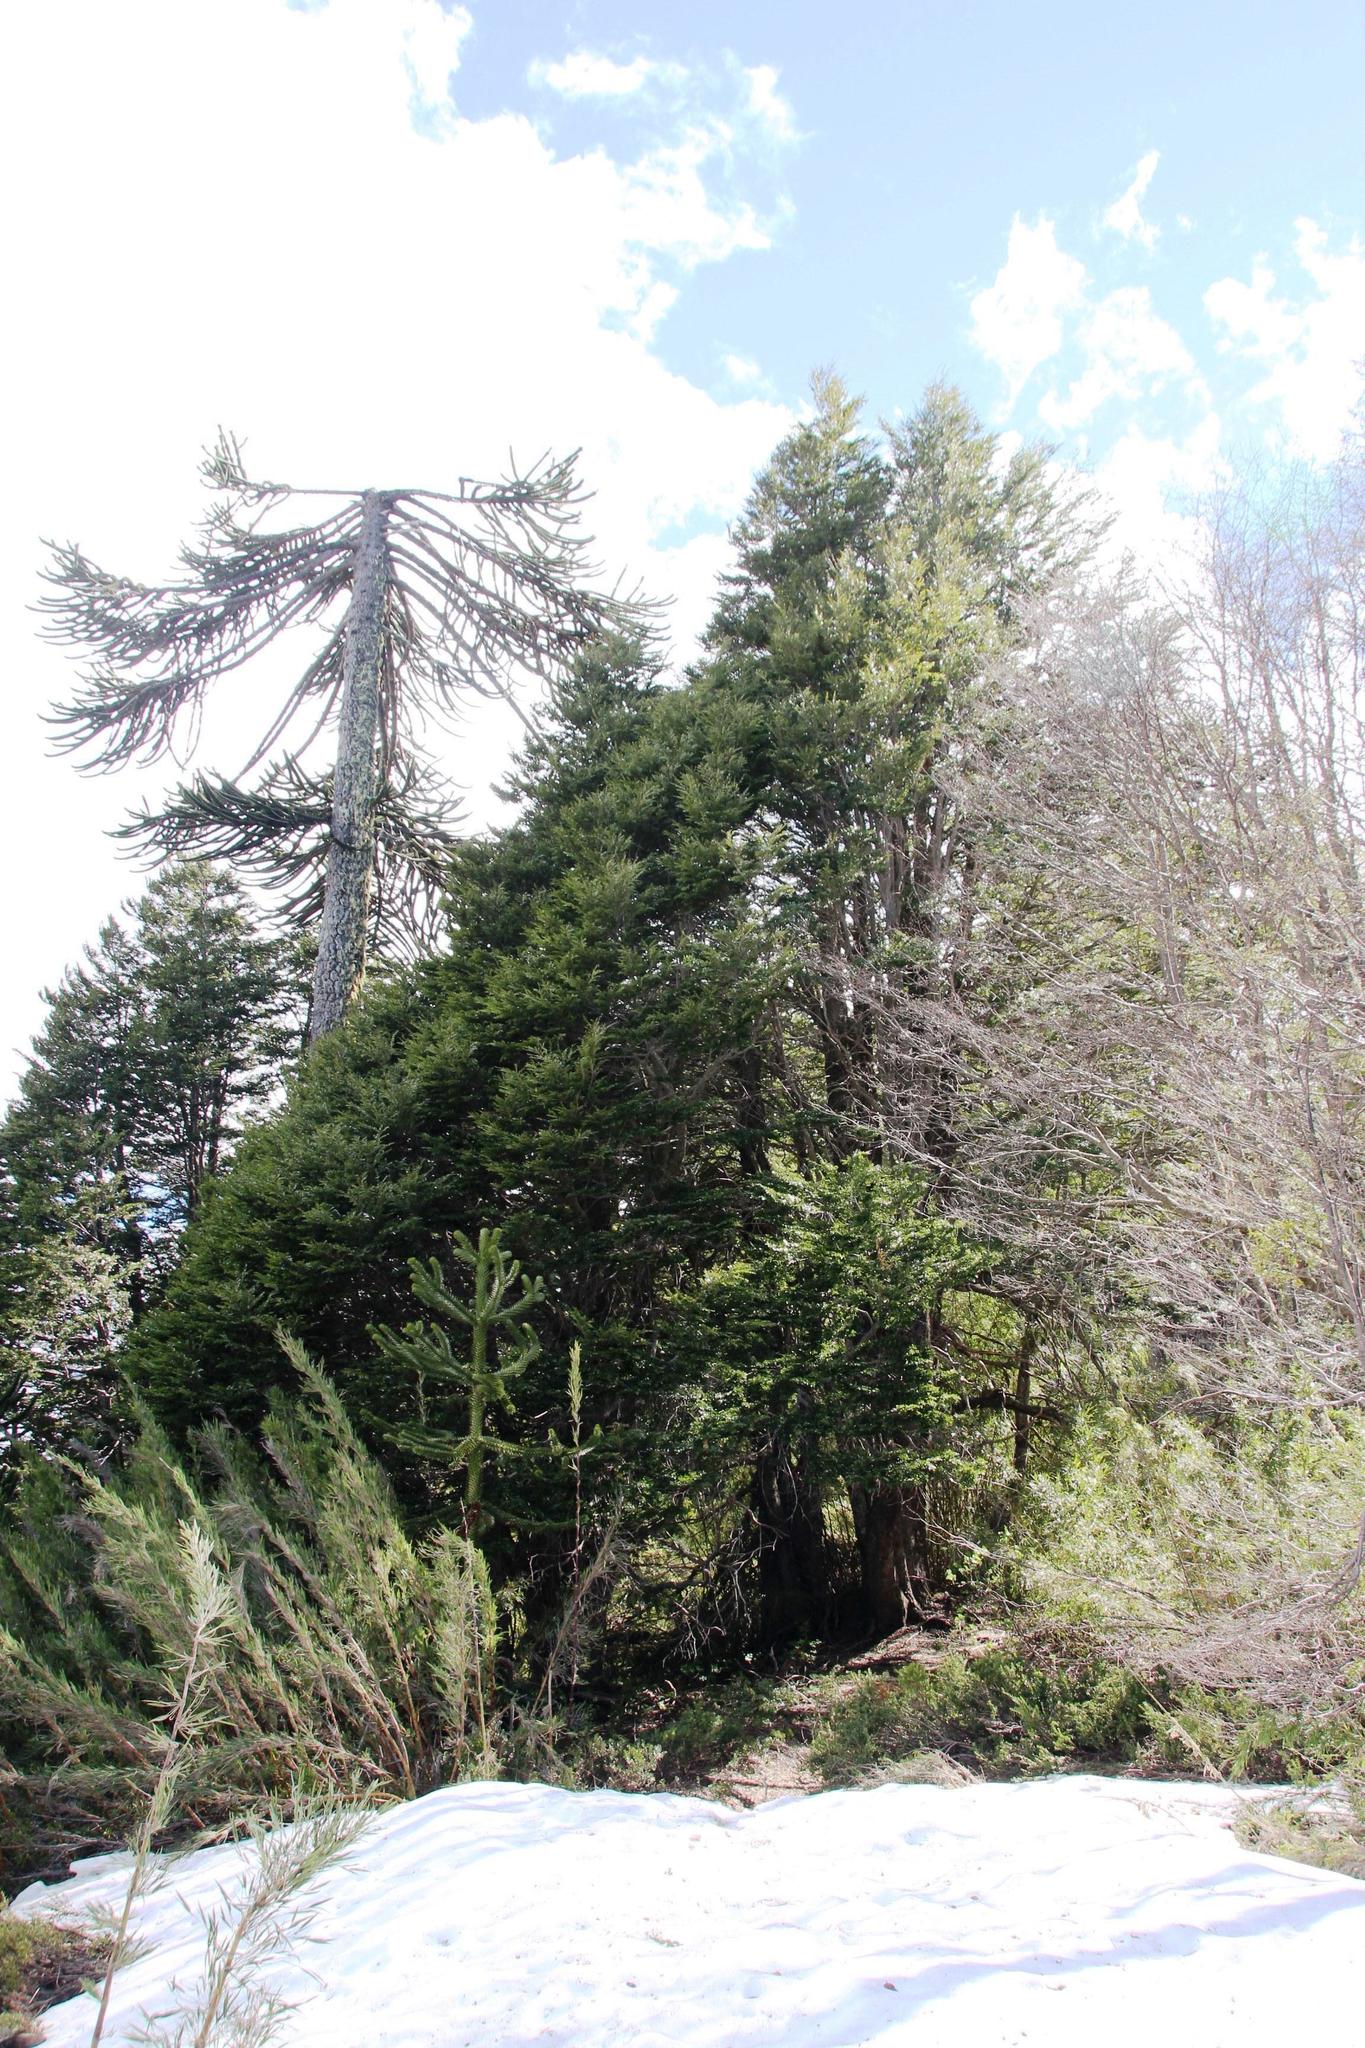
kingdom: Plantae
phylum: Tracheophyta
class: Magnoliopsida
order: Fagales
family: Nothofagaceae
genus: Nothofagus
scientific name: Nothofagus dombeyi
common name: Coigue
